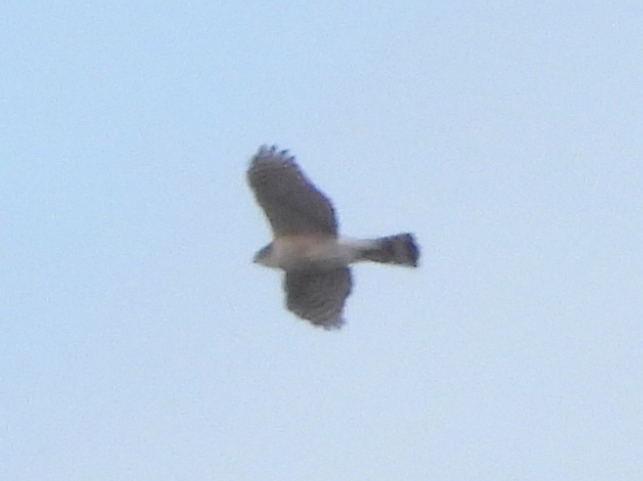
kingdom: Animalia
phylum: Chordata
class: Aves
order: Accipitriformes
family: Accipitridae
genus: Accipiter
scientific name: Accipiter striatus
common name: Sharp-shinned hawk
